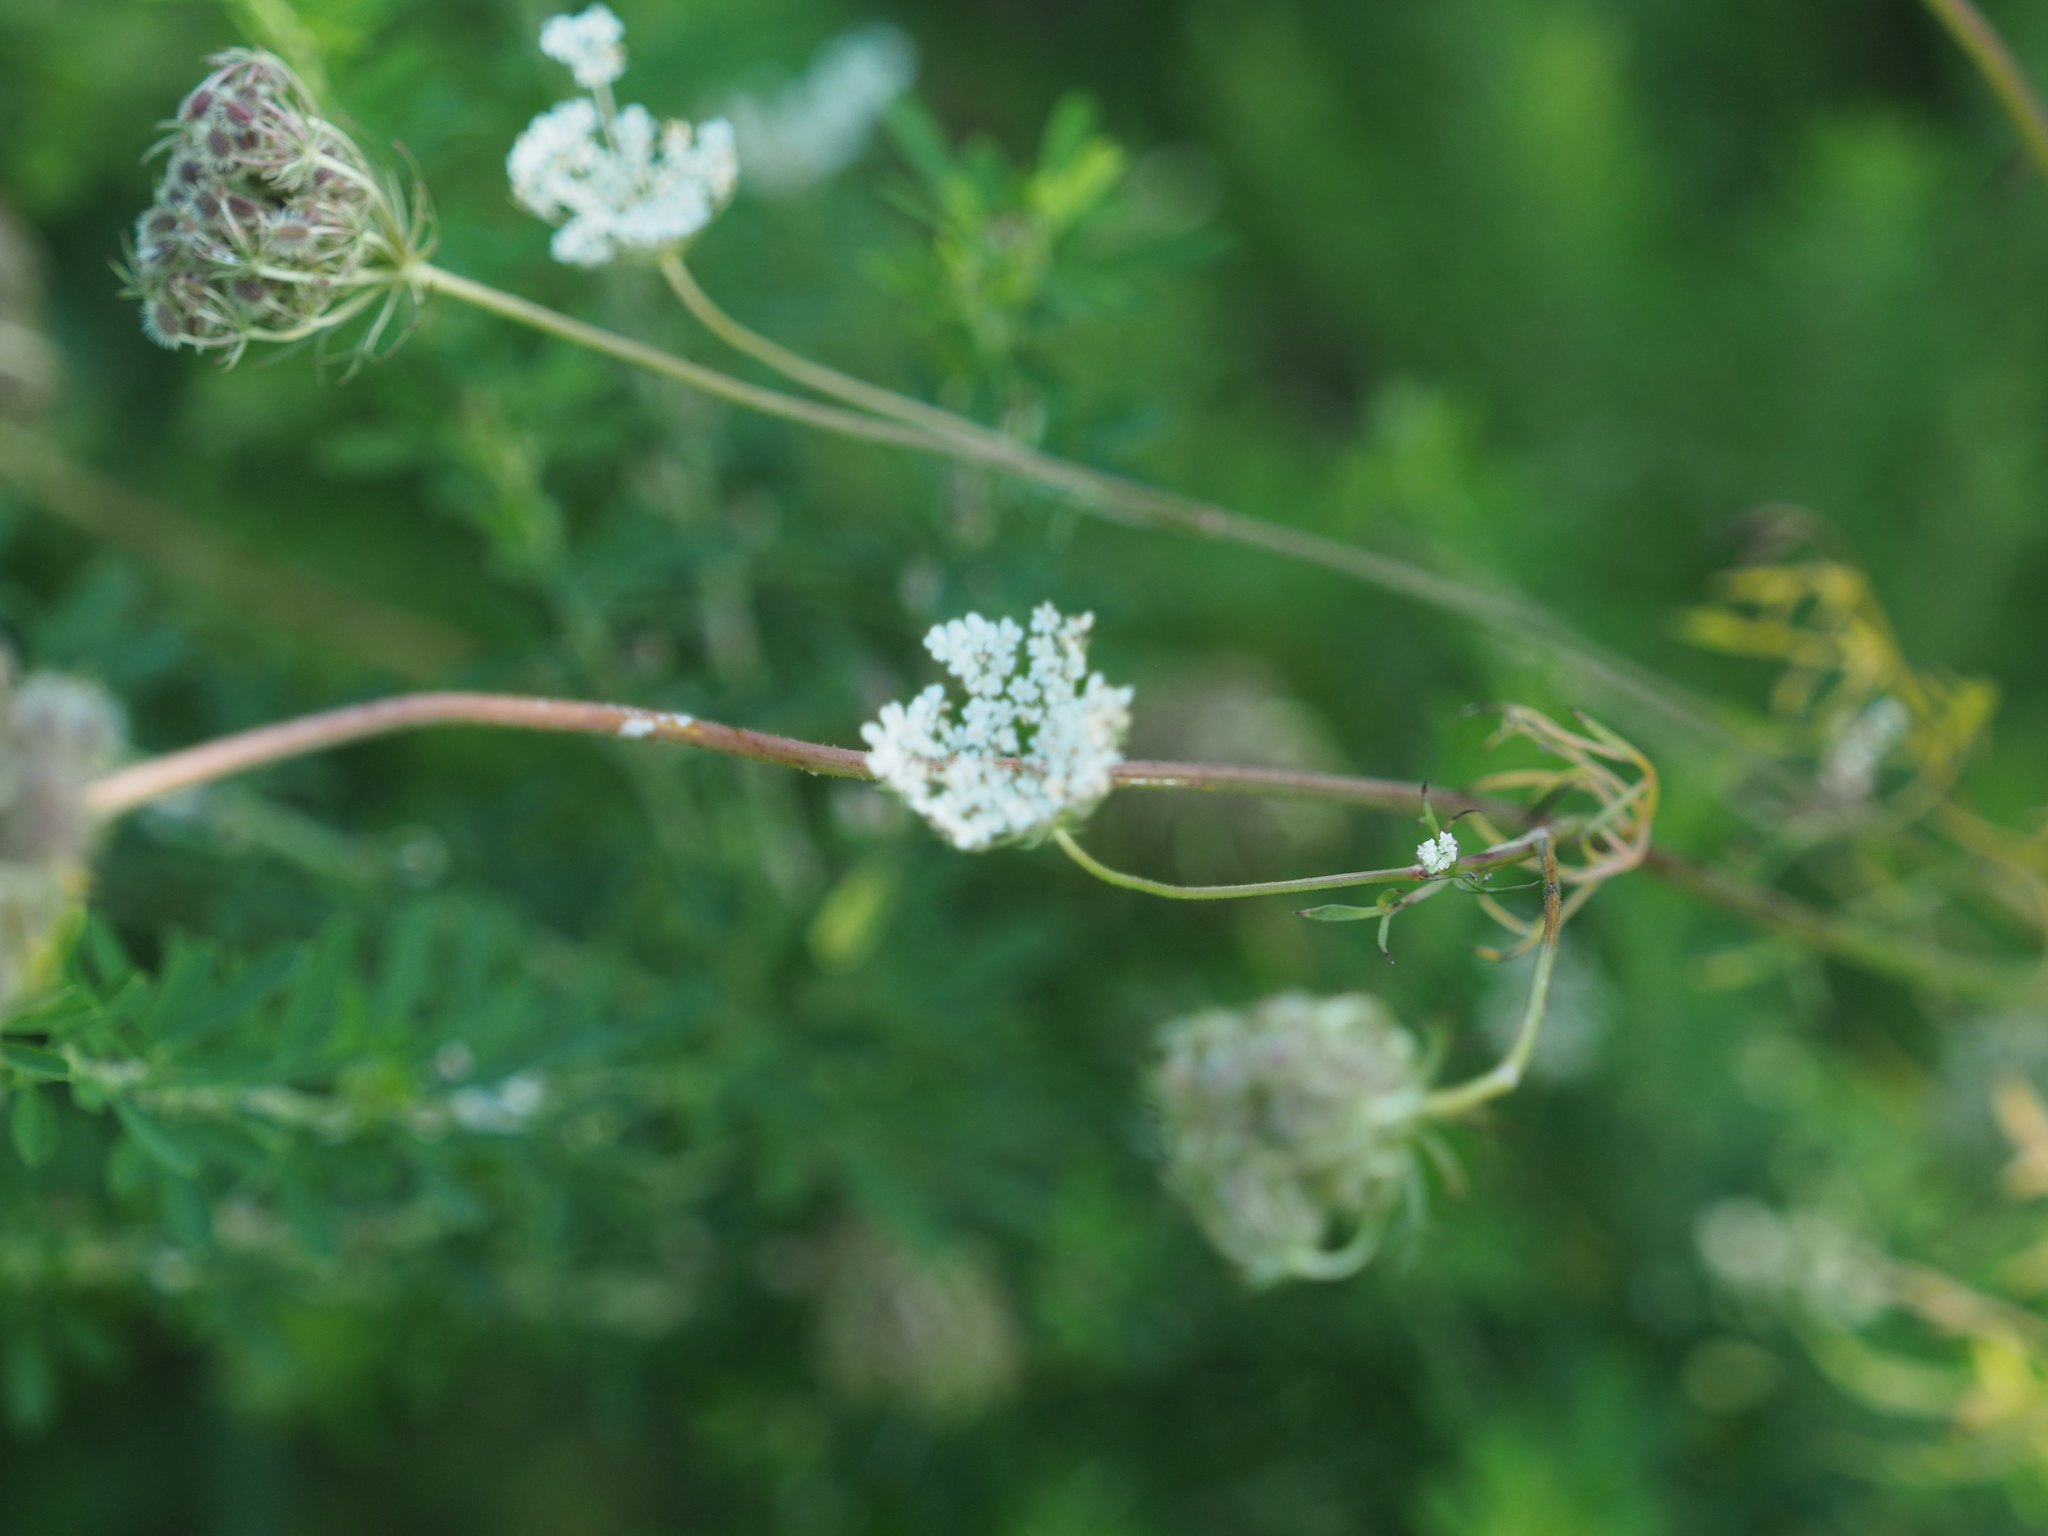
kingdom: Plantae
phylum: Tracheophyta
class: Magnoliopsida
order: Apiales
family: Apiaceae
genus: Daucus
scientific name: Daucus carota
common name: Wild carrot
